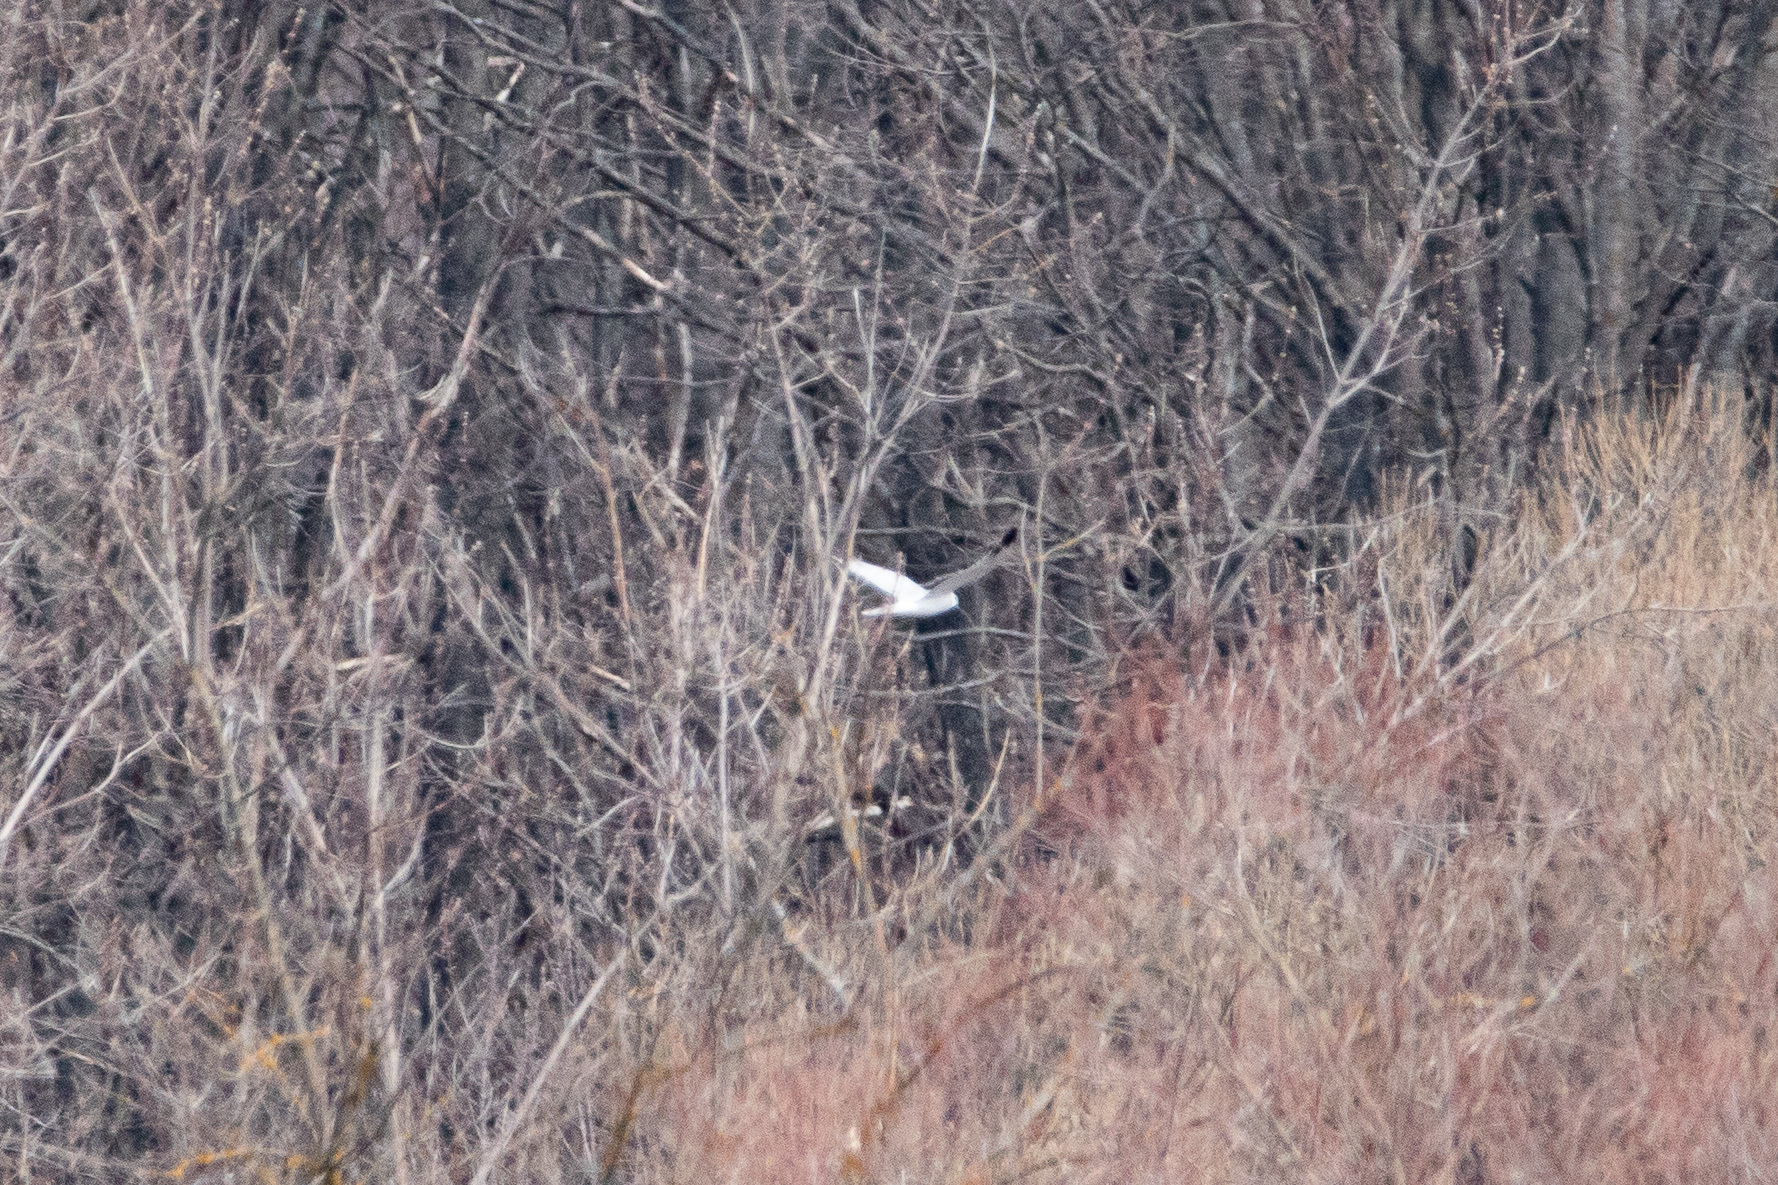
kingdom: Animalia
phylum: Chordata
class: Aves
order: Accipitriformes
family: Accipitridae
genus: Circus
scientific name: Circus macrourus
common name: Pallid harrier
